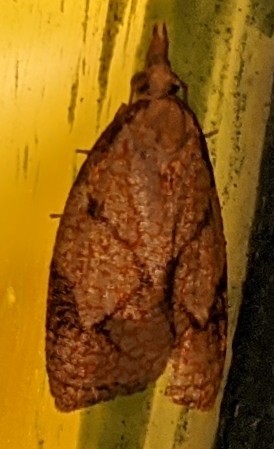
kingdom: Animalia
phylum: Arthropoda
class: Insecta
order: Lepidoptera
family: Tortricidae
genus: Cenopis
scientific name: Cenopis reticulatana
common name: Reticulated fruitworm moth
